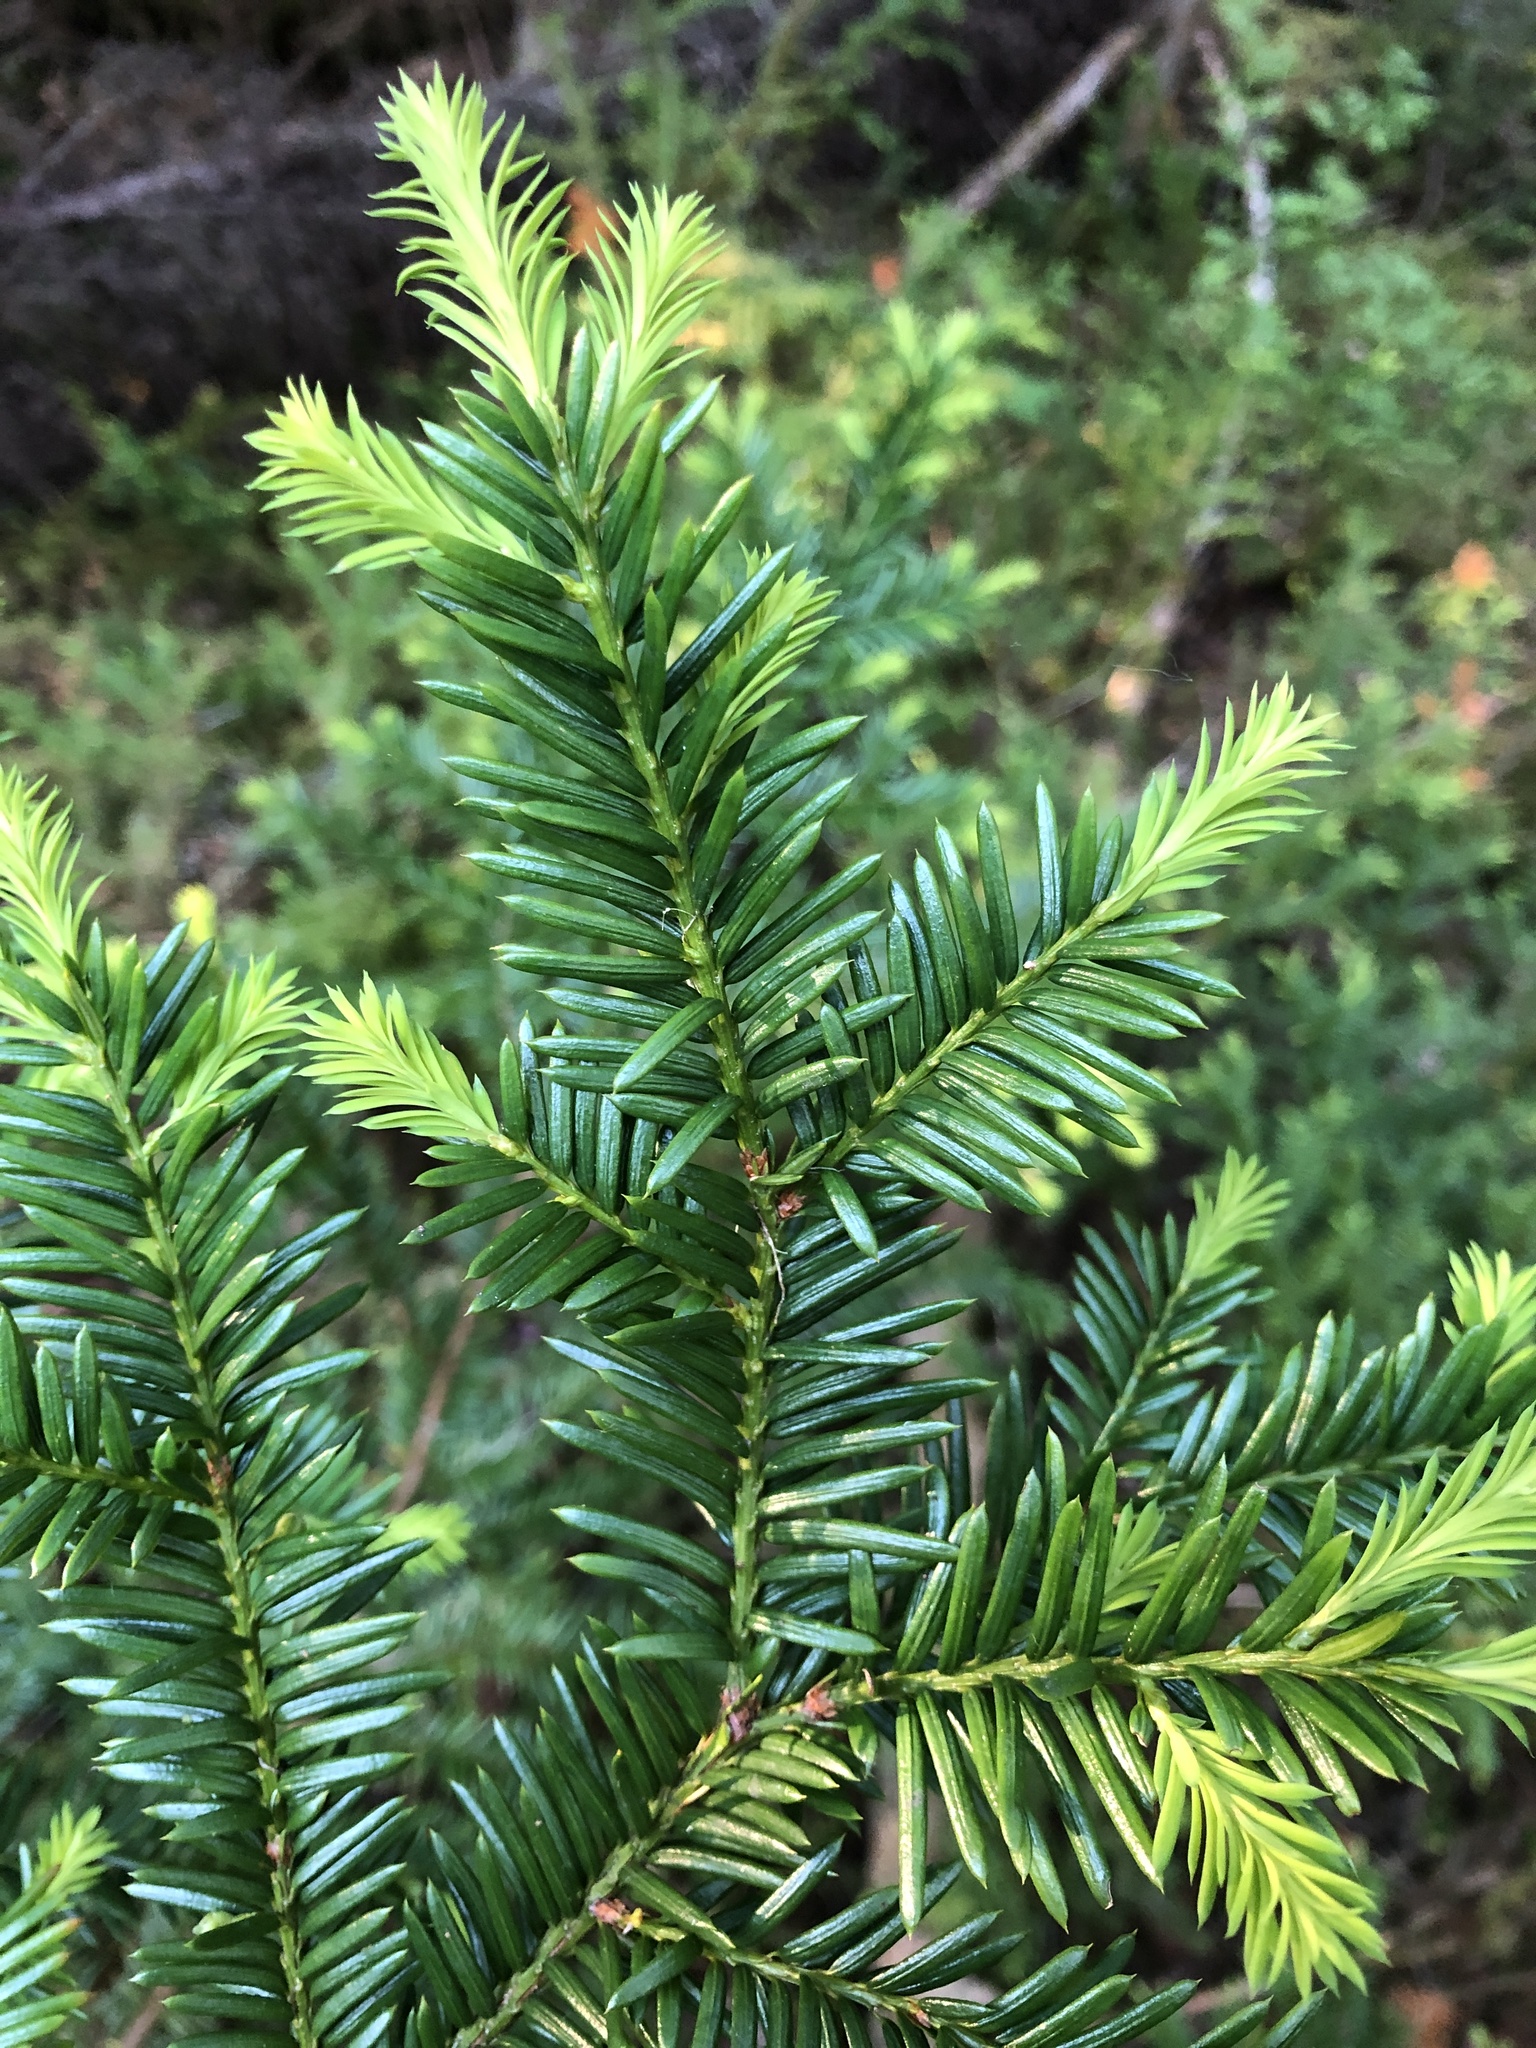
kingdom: Plantae
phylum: Tracheophyta
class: Pinopsida
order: Pinales
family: Taxaceae
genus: Taxus
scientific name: Taxus canadensis
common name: American yew
